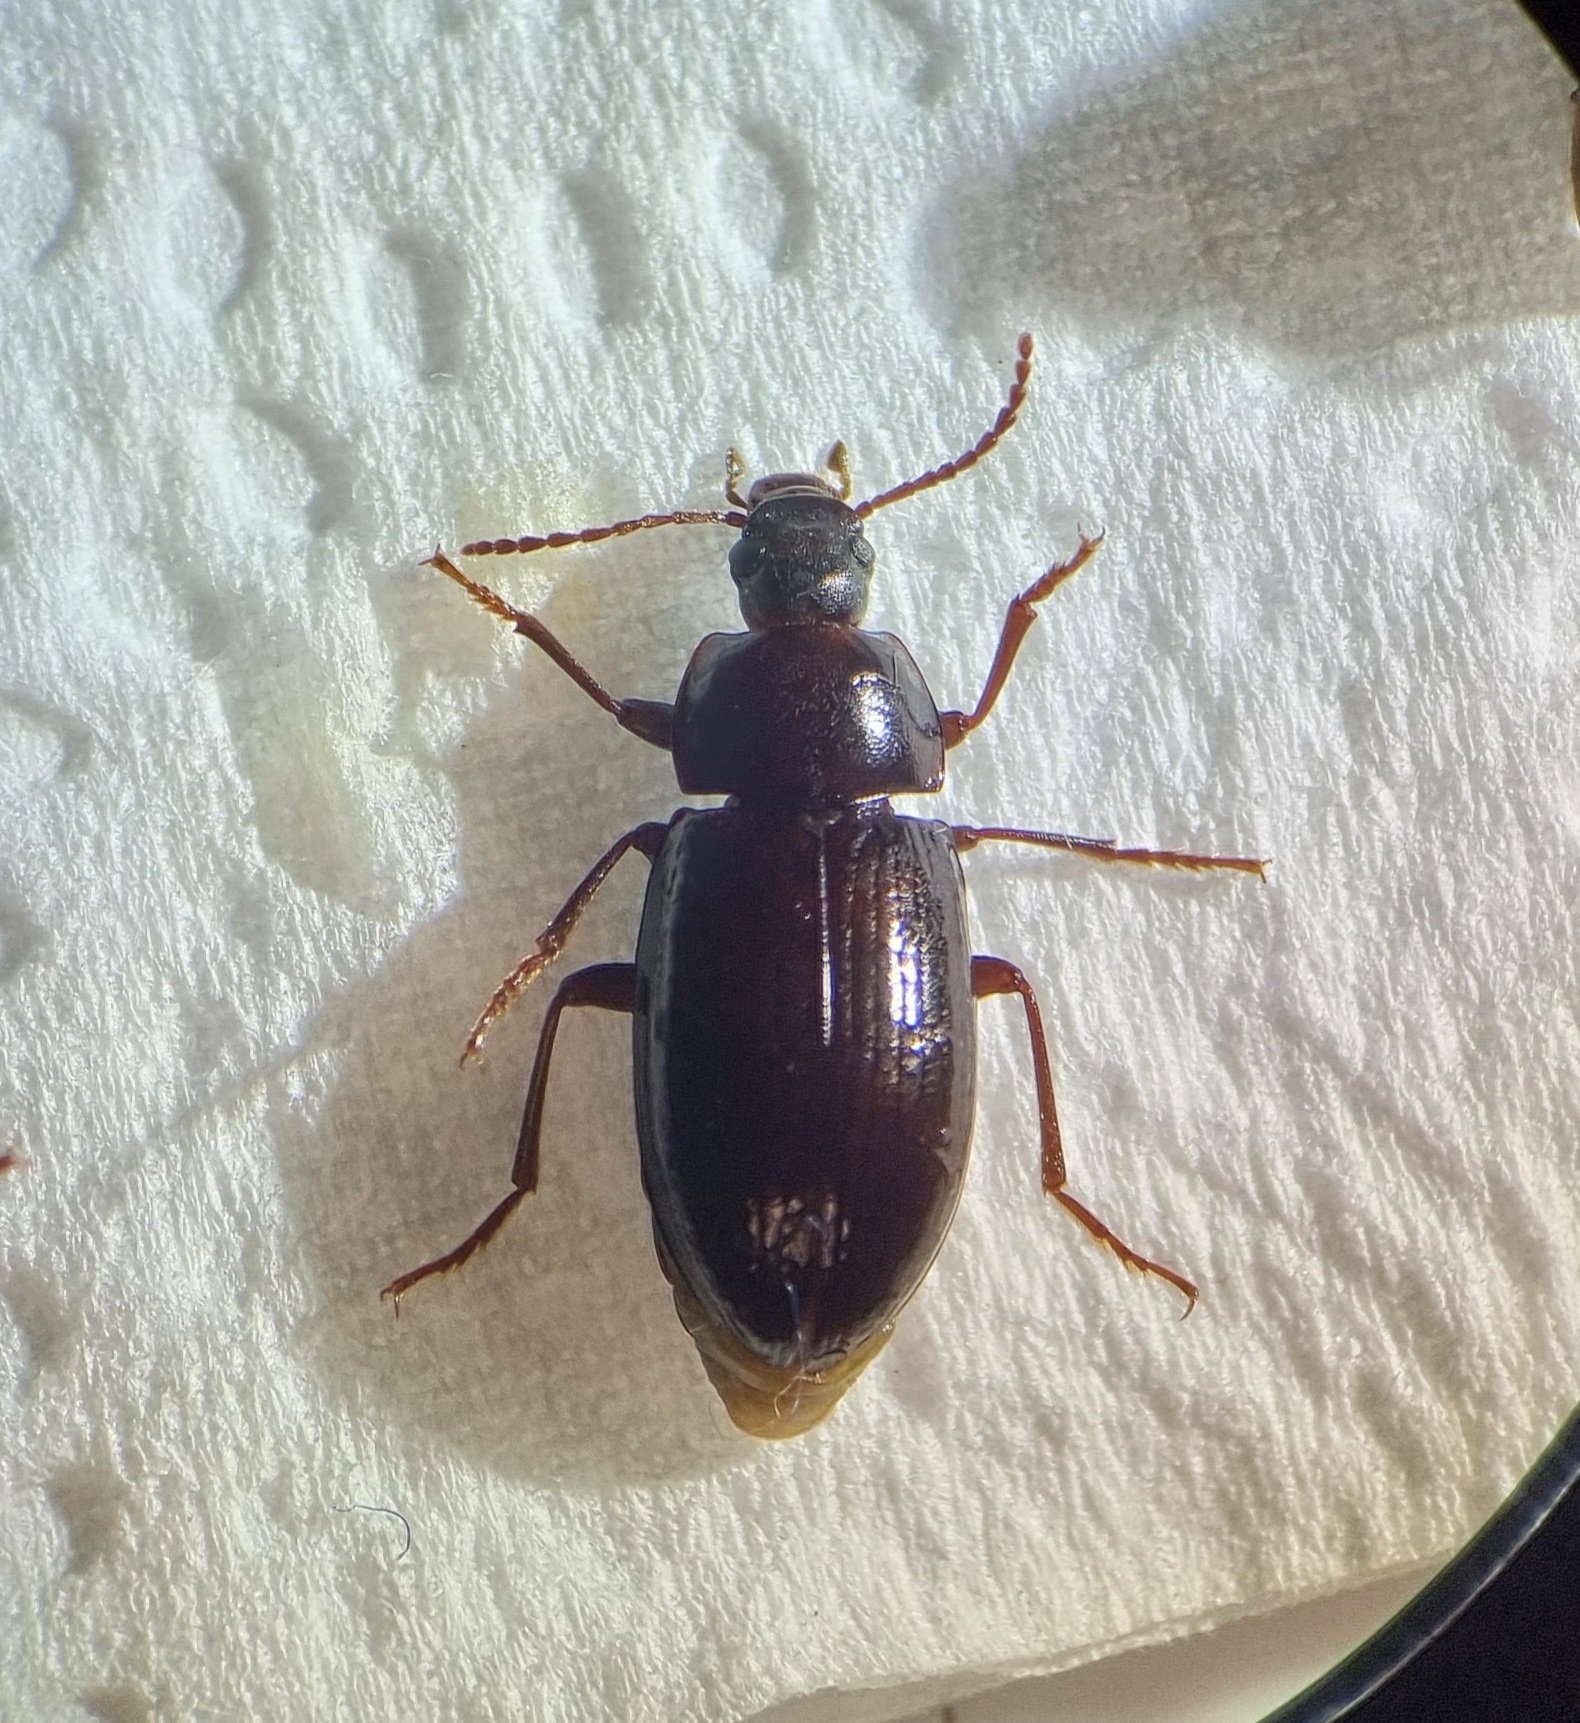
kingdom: Animalia
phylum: Arthropoda
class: Insecta
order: Coleoptera
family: Tenebrionidae
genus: Nalassus
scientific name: Nalassus laevioctostriatus
